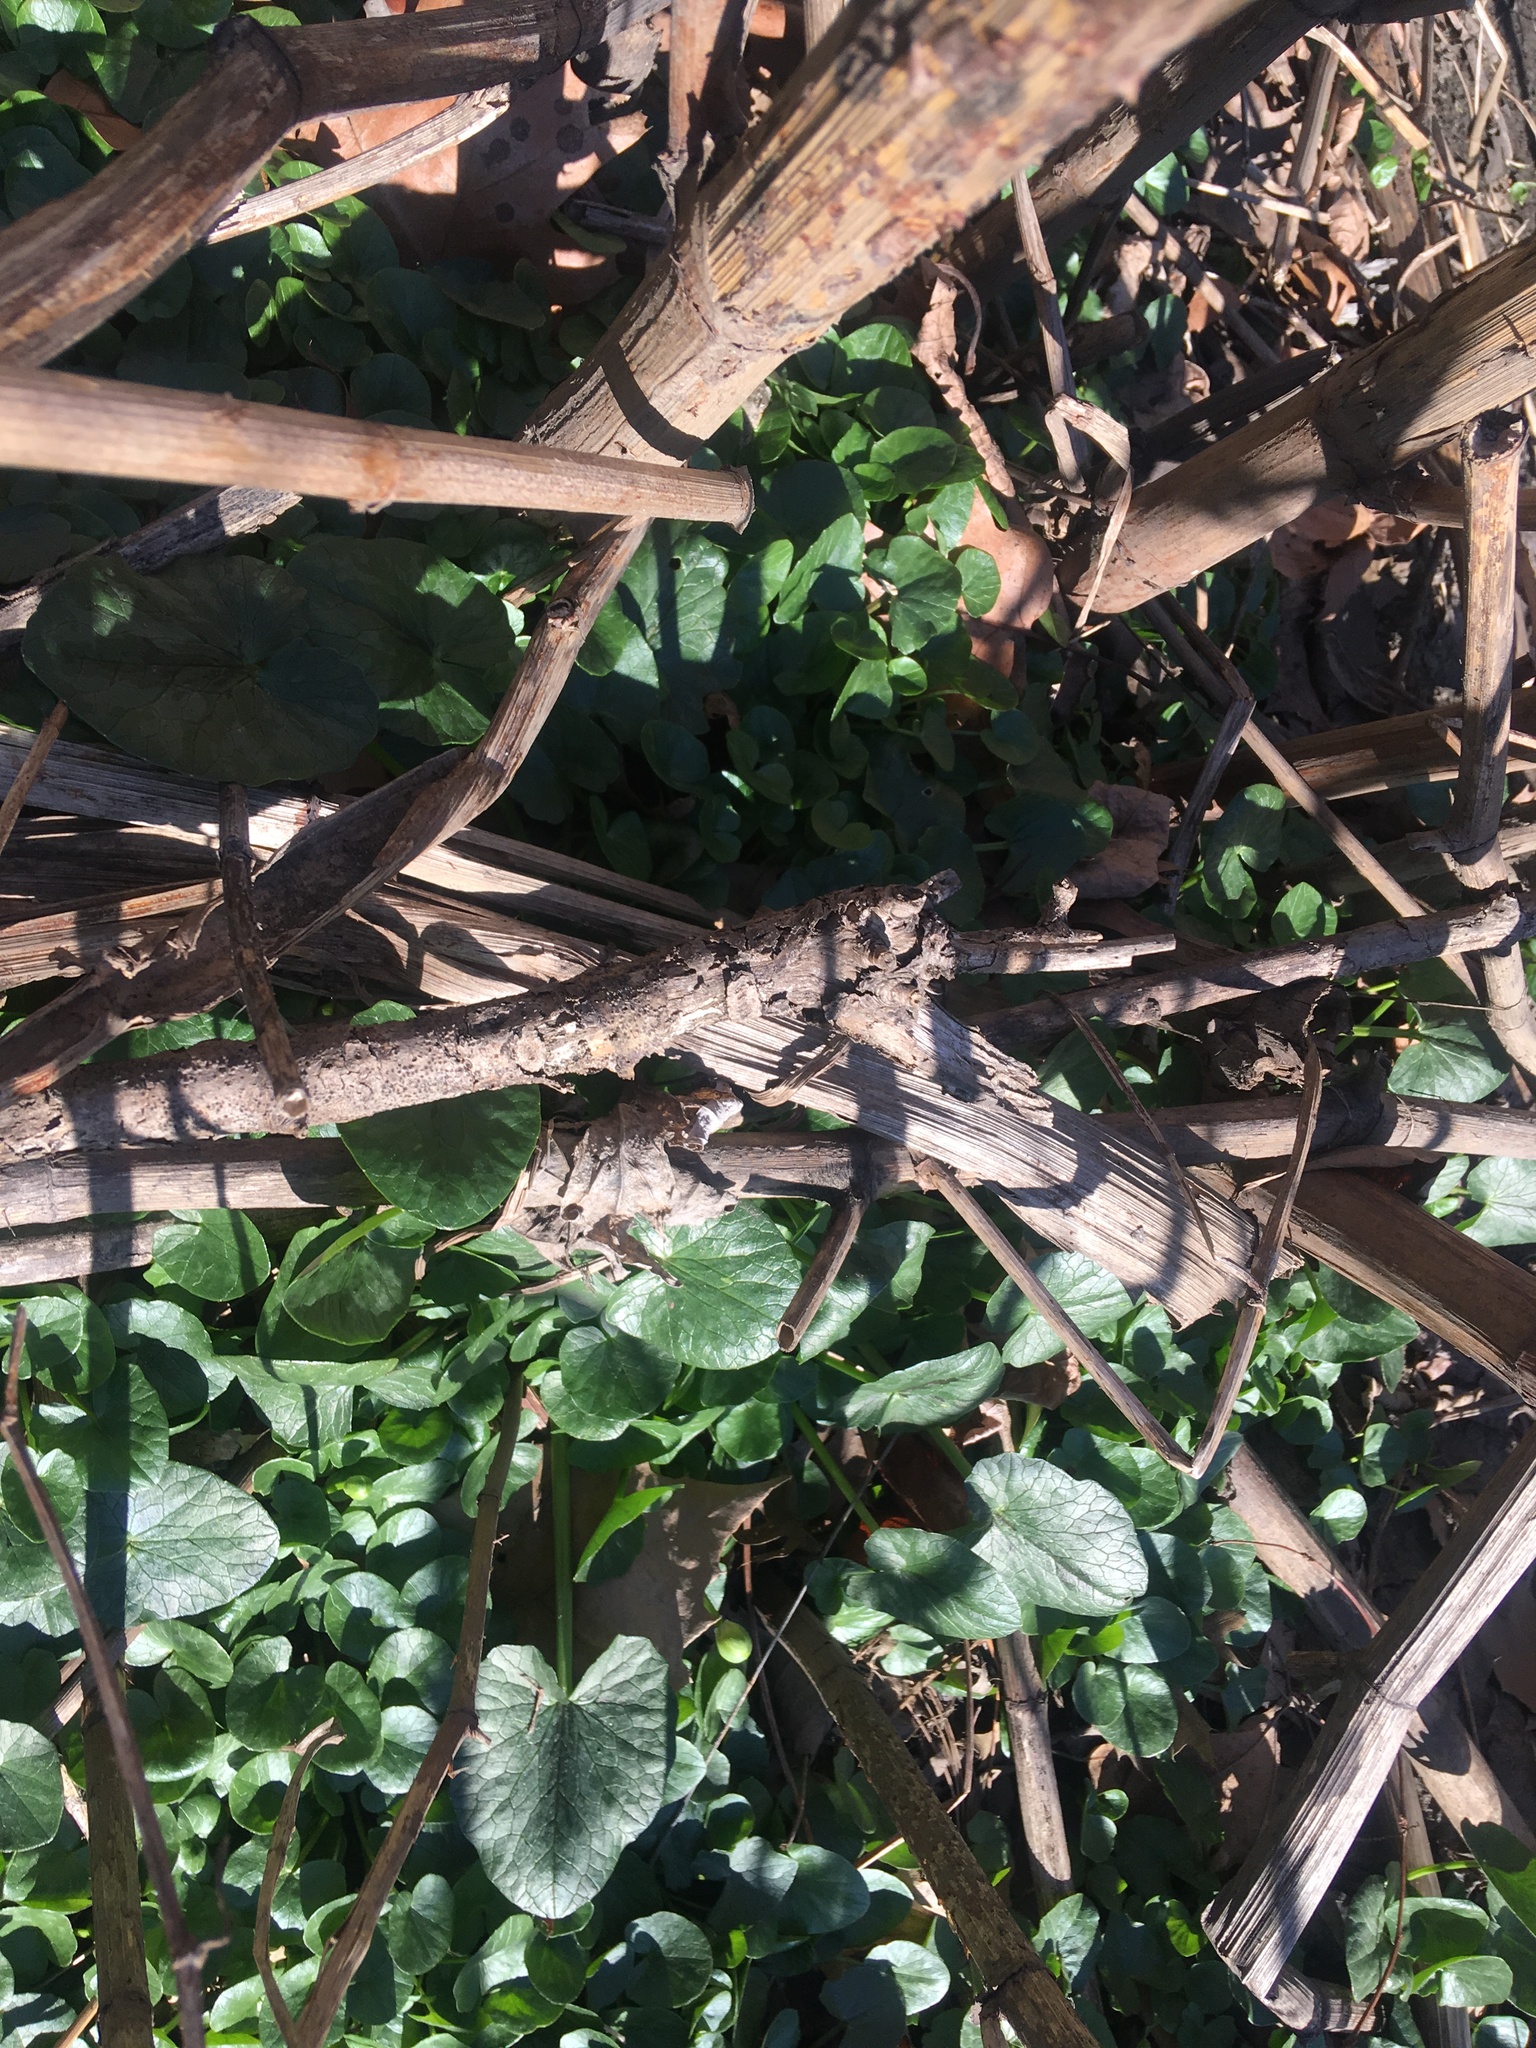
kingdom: Plantae
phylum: Tracheophyta
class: Magnoliopsida
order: Ranunculales
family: Ranunculaceae
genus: Ficaria
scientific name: Ficaria verna
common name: Lesser celandine
